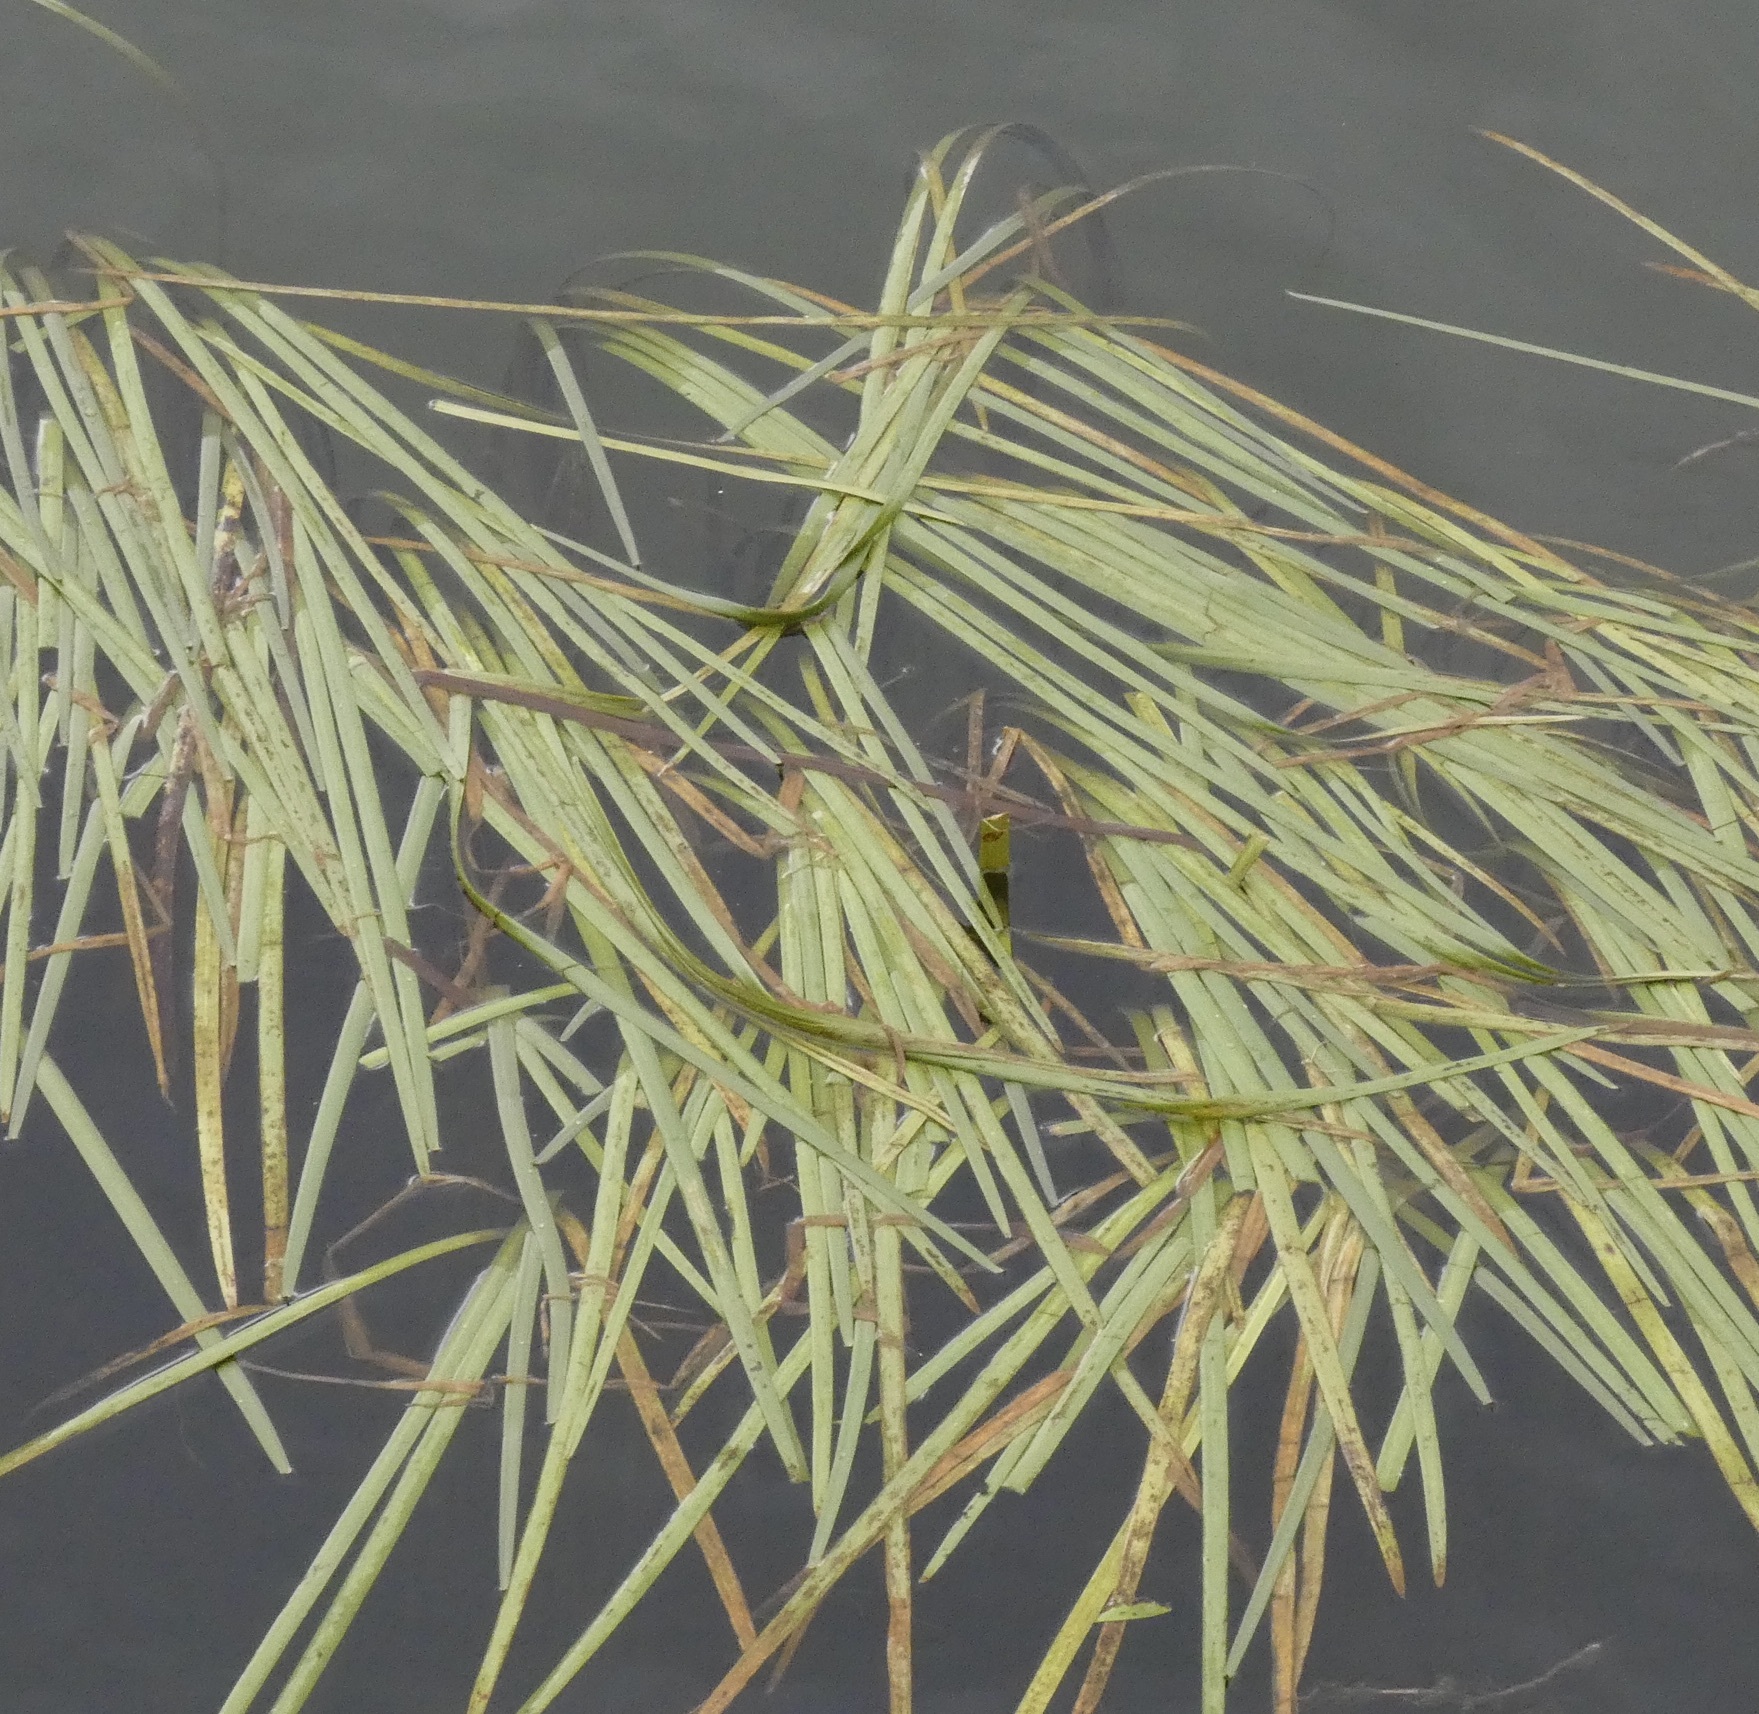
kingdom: Plantae
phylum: Tracheophyta
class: Liliopsida
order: Poales
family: Typhaceae
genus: Sparganium
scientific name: Sparganium emersum
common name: Unbranched bur-reed
